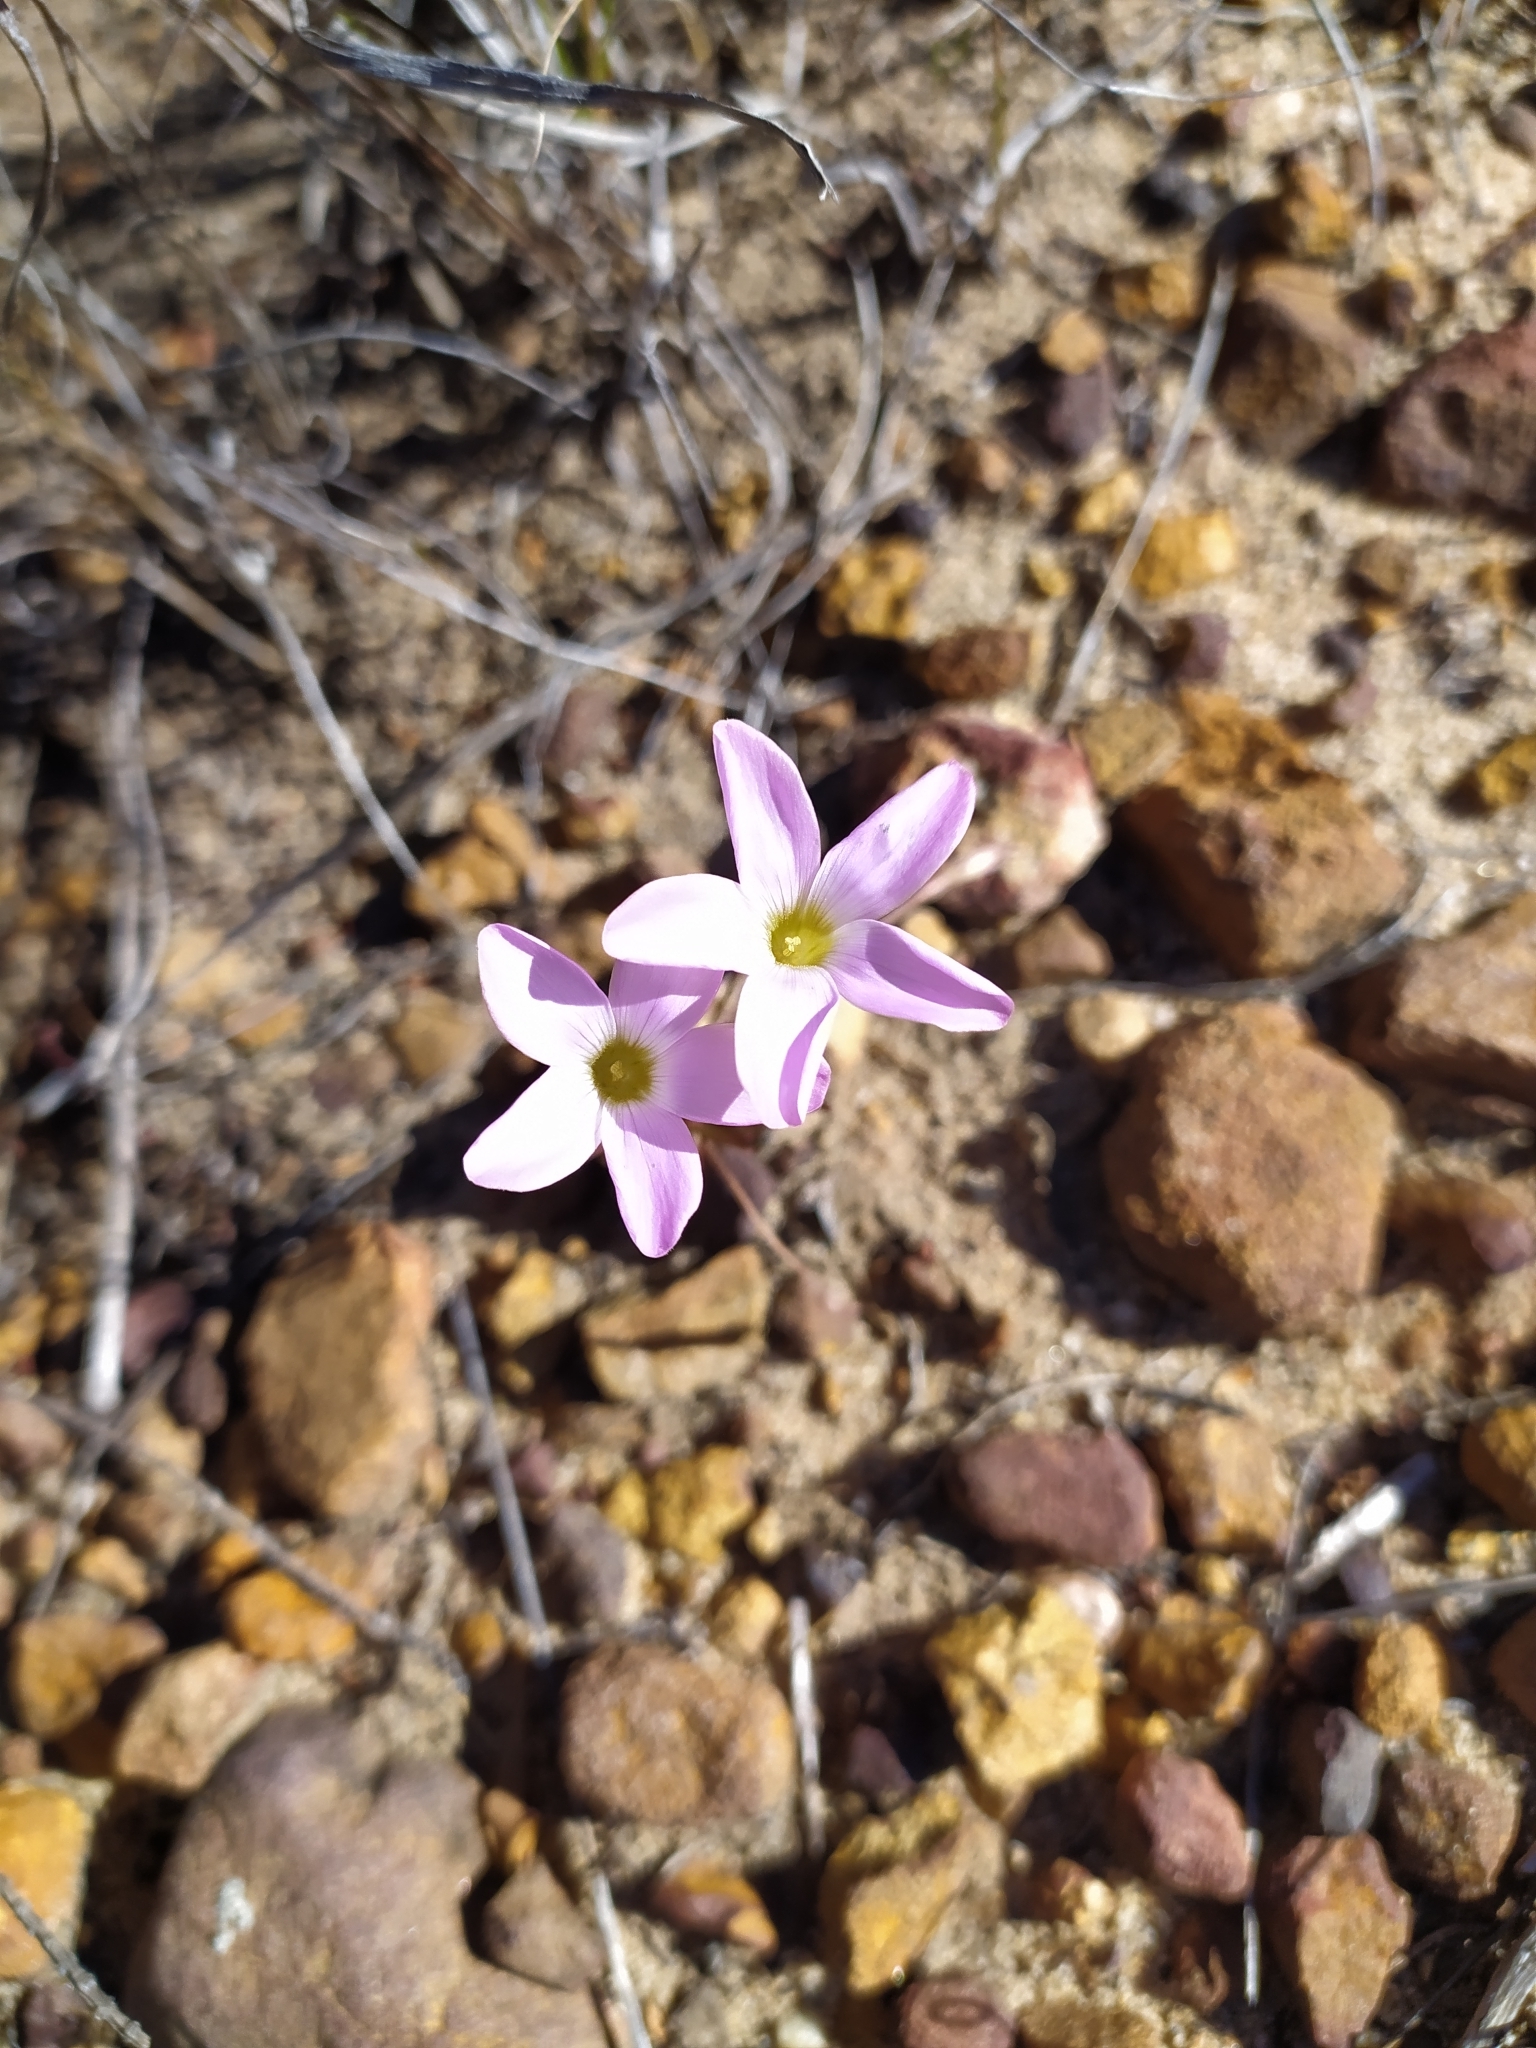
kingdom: Plantae
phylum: Tracheophyta
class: Magnoliopsida
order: Oxalidales
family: Oxalidaceae
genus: Oxalis
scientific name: Oxalis polyphylla
